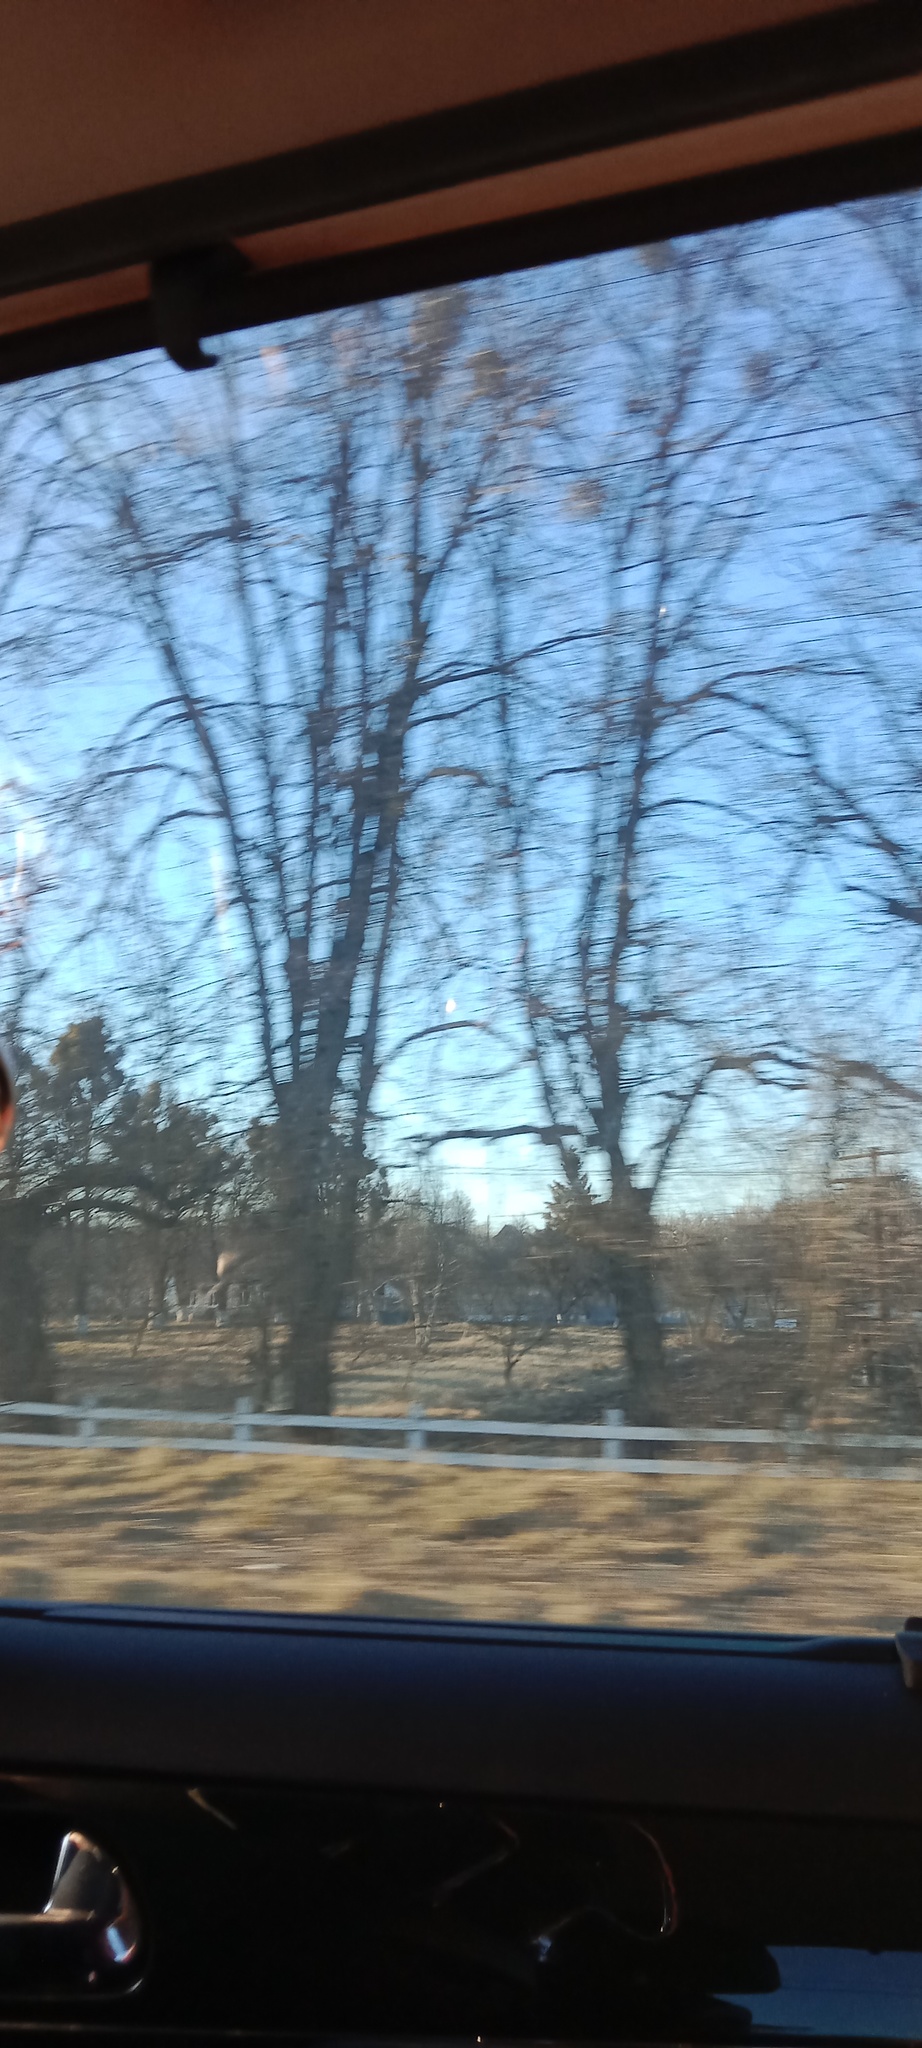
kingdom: Plantae
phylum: Tracheophyta
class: Magnoliopsida
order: Santalales
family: Viscaceae
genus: Viscum
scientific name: Viscum album
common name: Mistletoe
